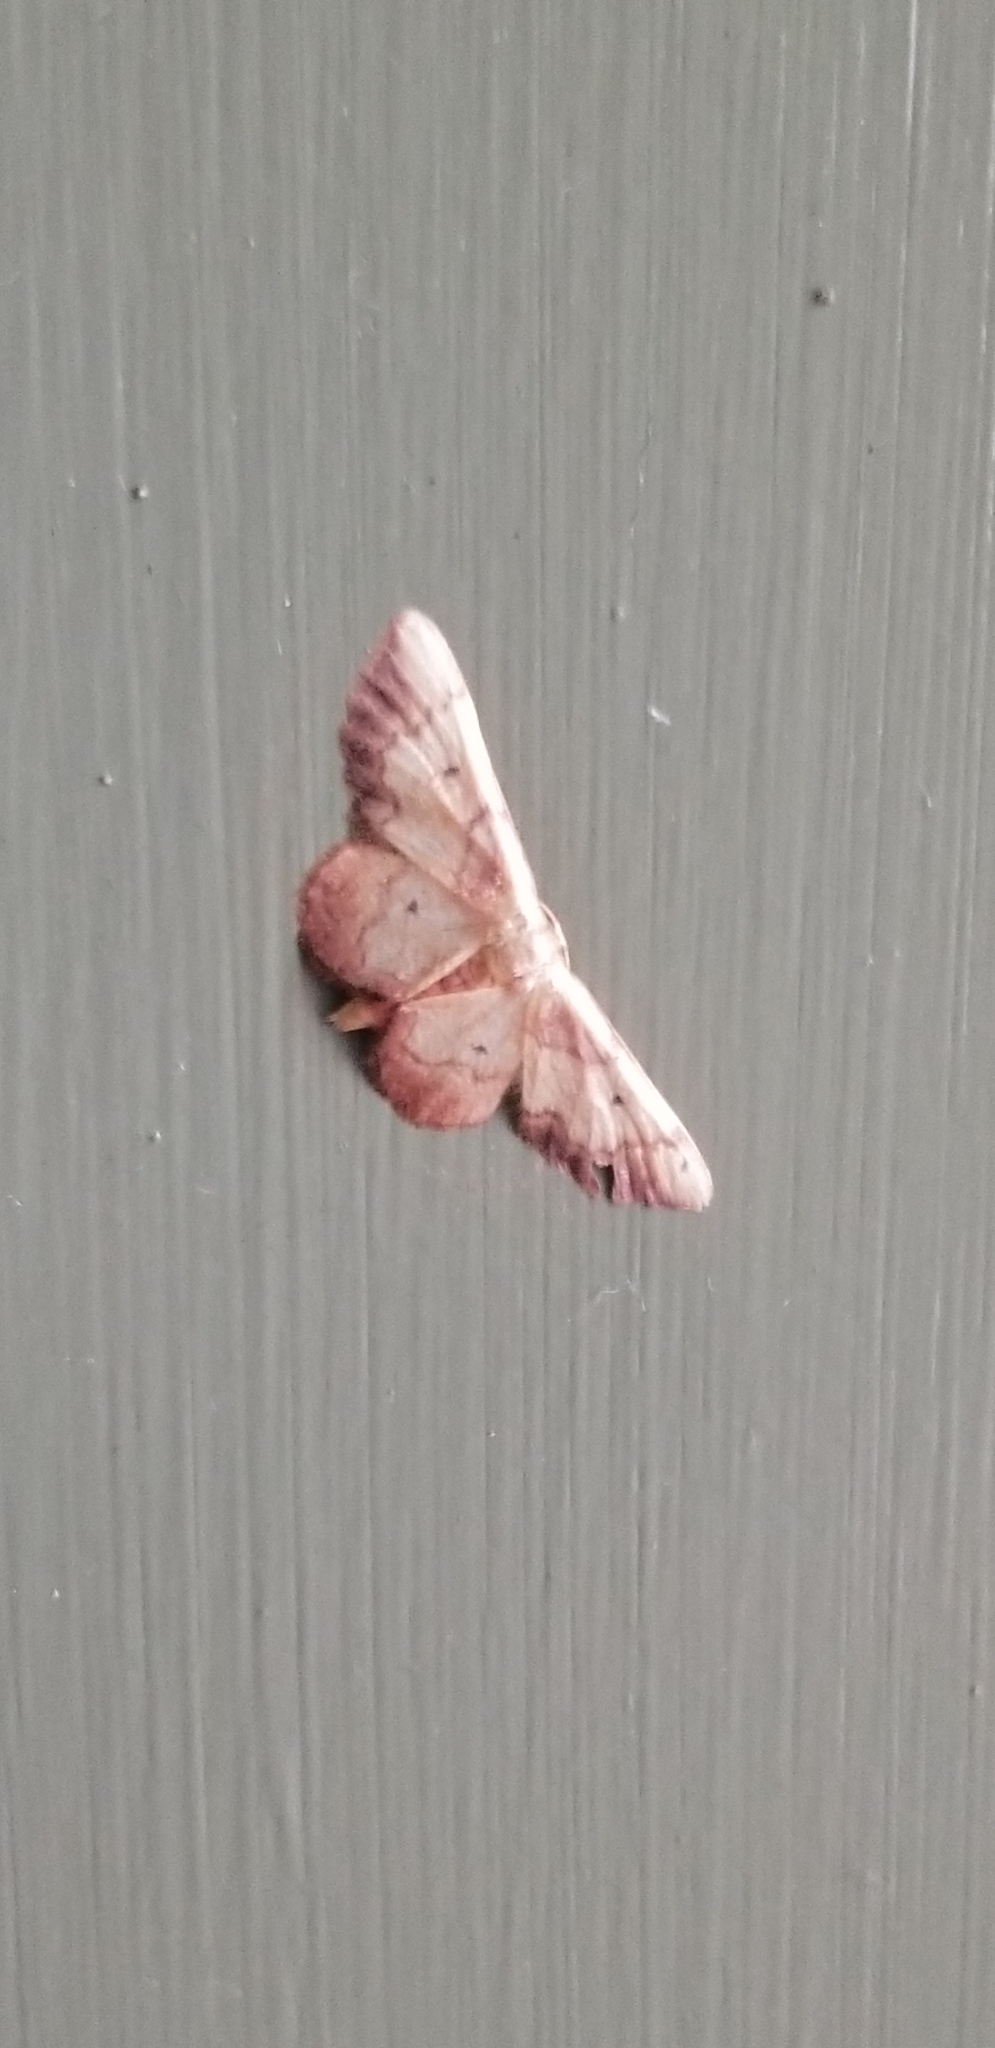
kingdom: Animalia
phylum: Arthropoda
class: Insecta
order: Lepidoptera
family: Geometridae
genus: Idaea
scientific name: Idaea demissaria
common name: Red-bordered wave
